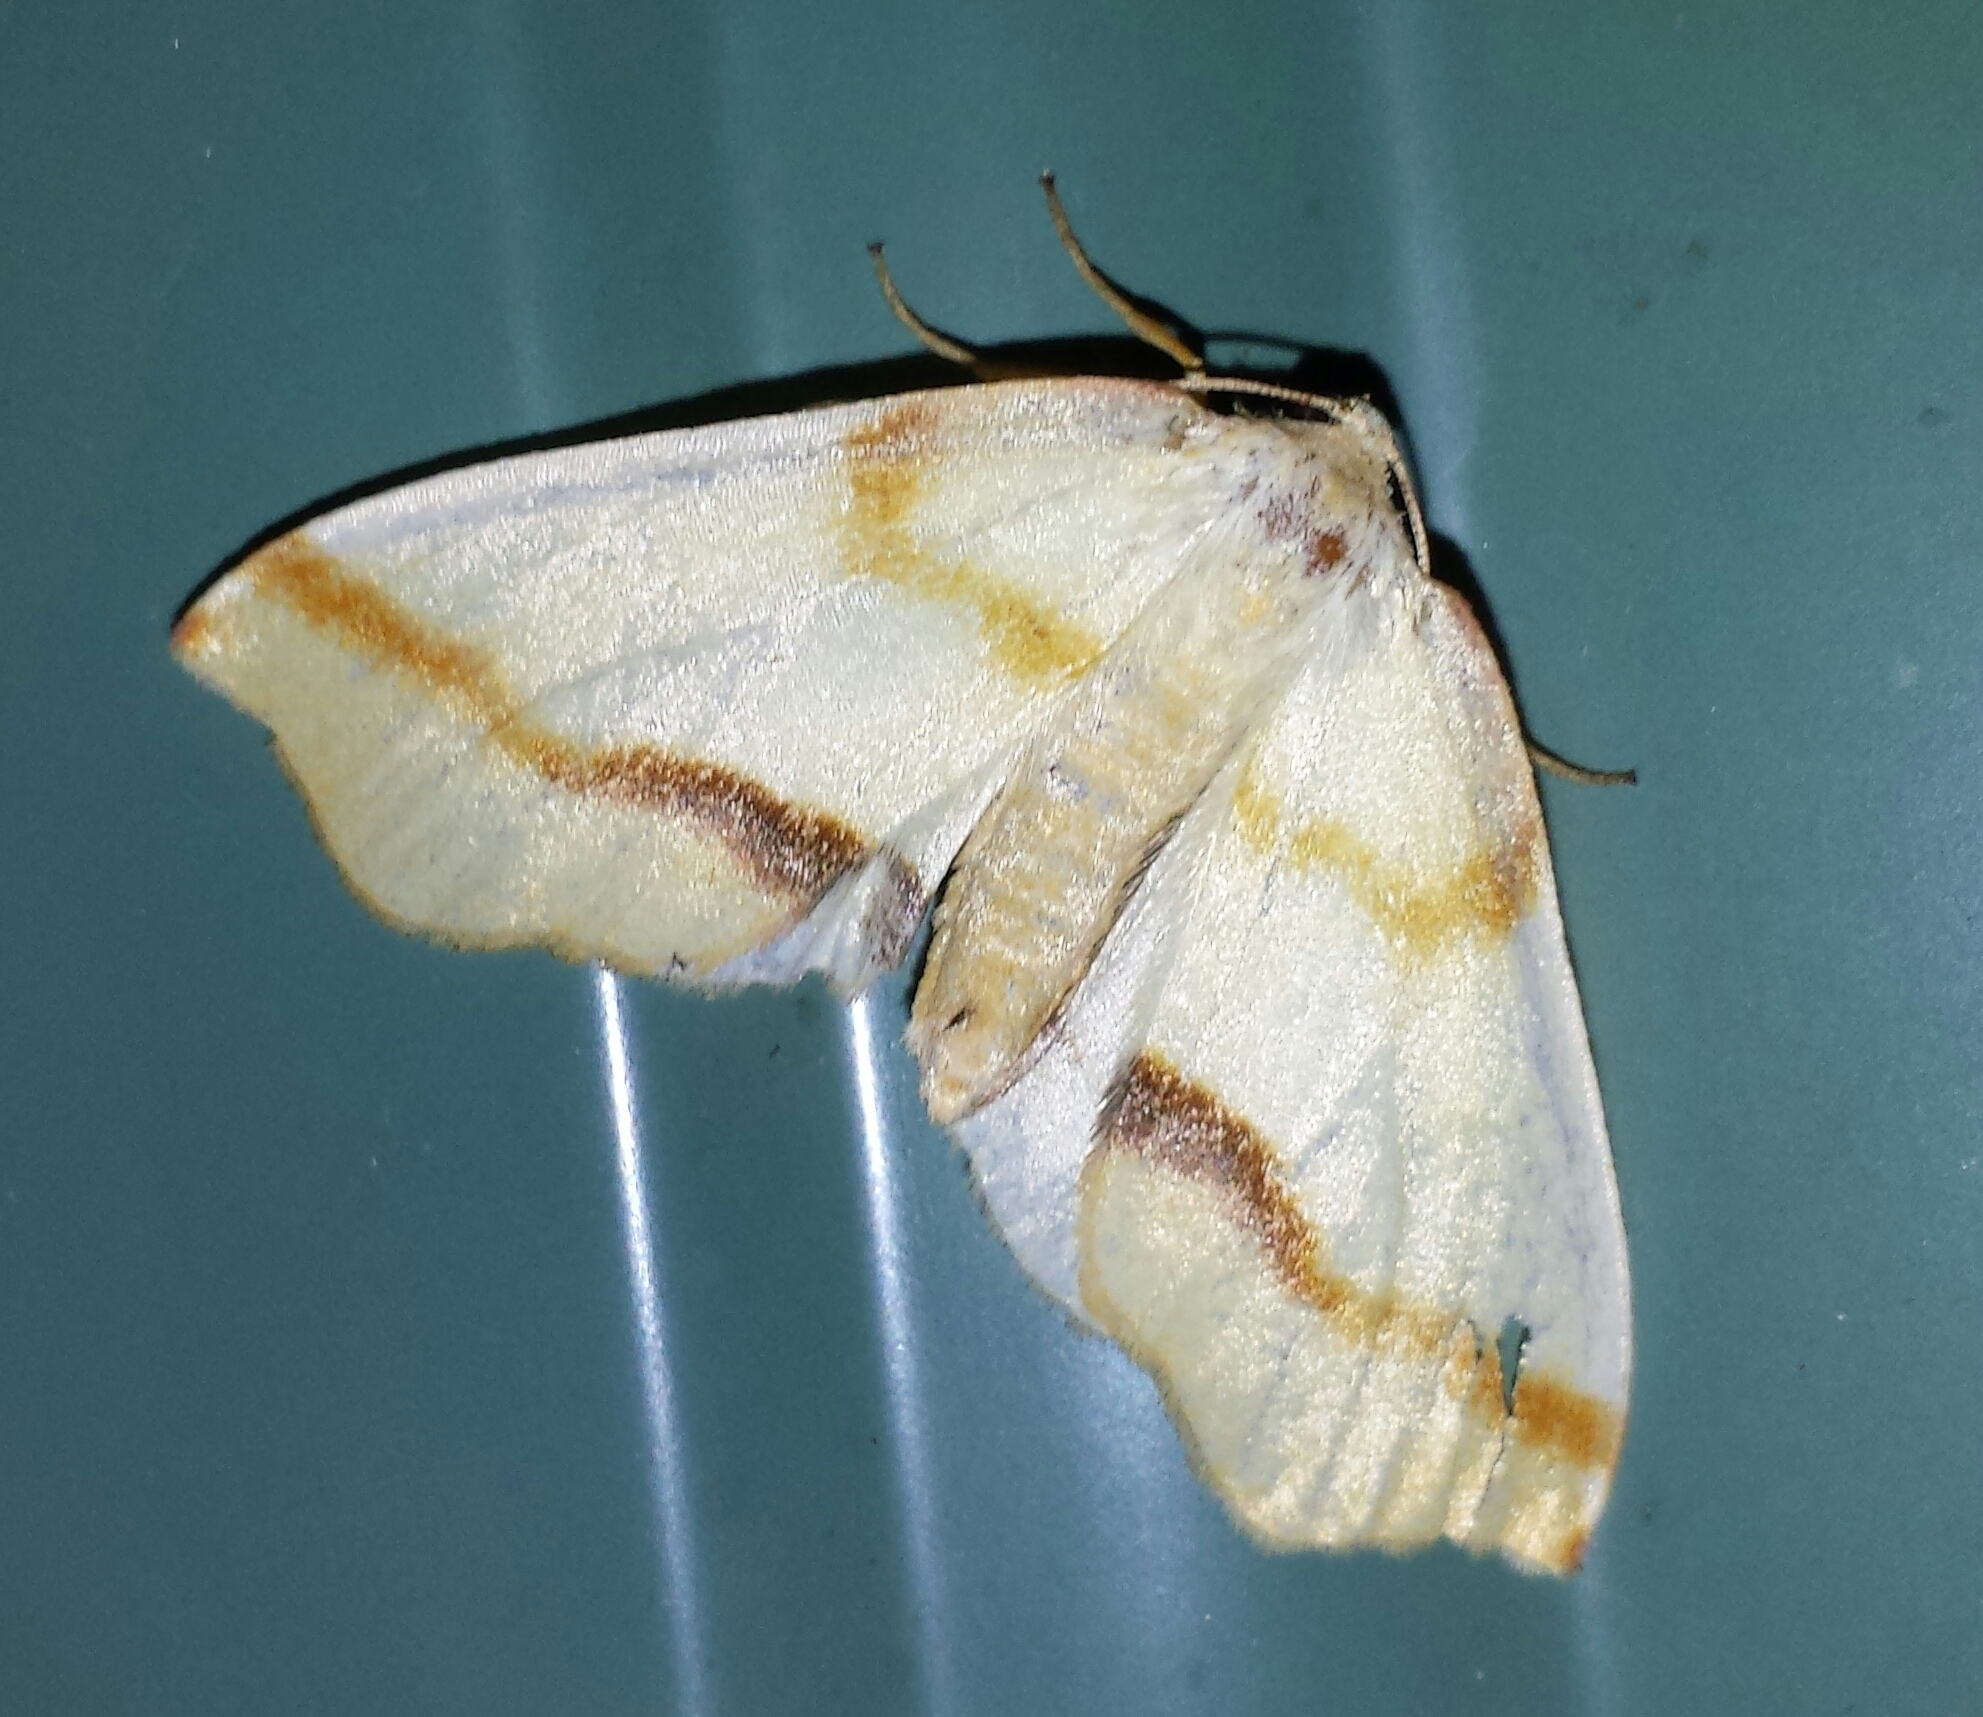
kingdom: Animalia
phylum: Arthropoda
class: Insecta
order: Lepidoptera
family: Geometridae
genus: Plagodis
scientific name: Plagodis serinaria
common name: Lemon plagodis
